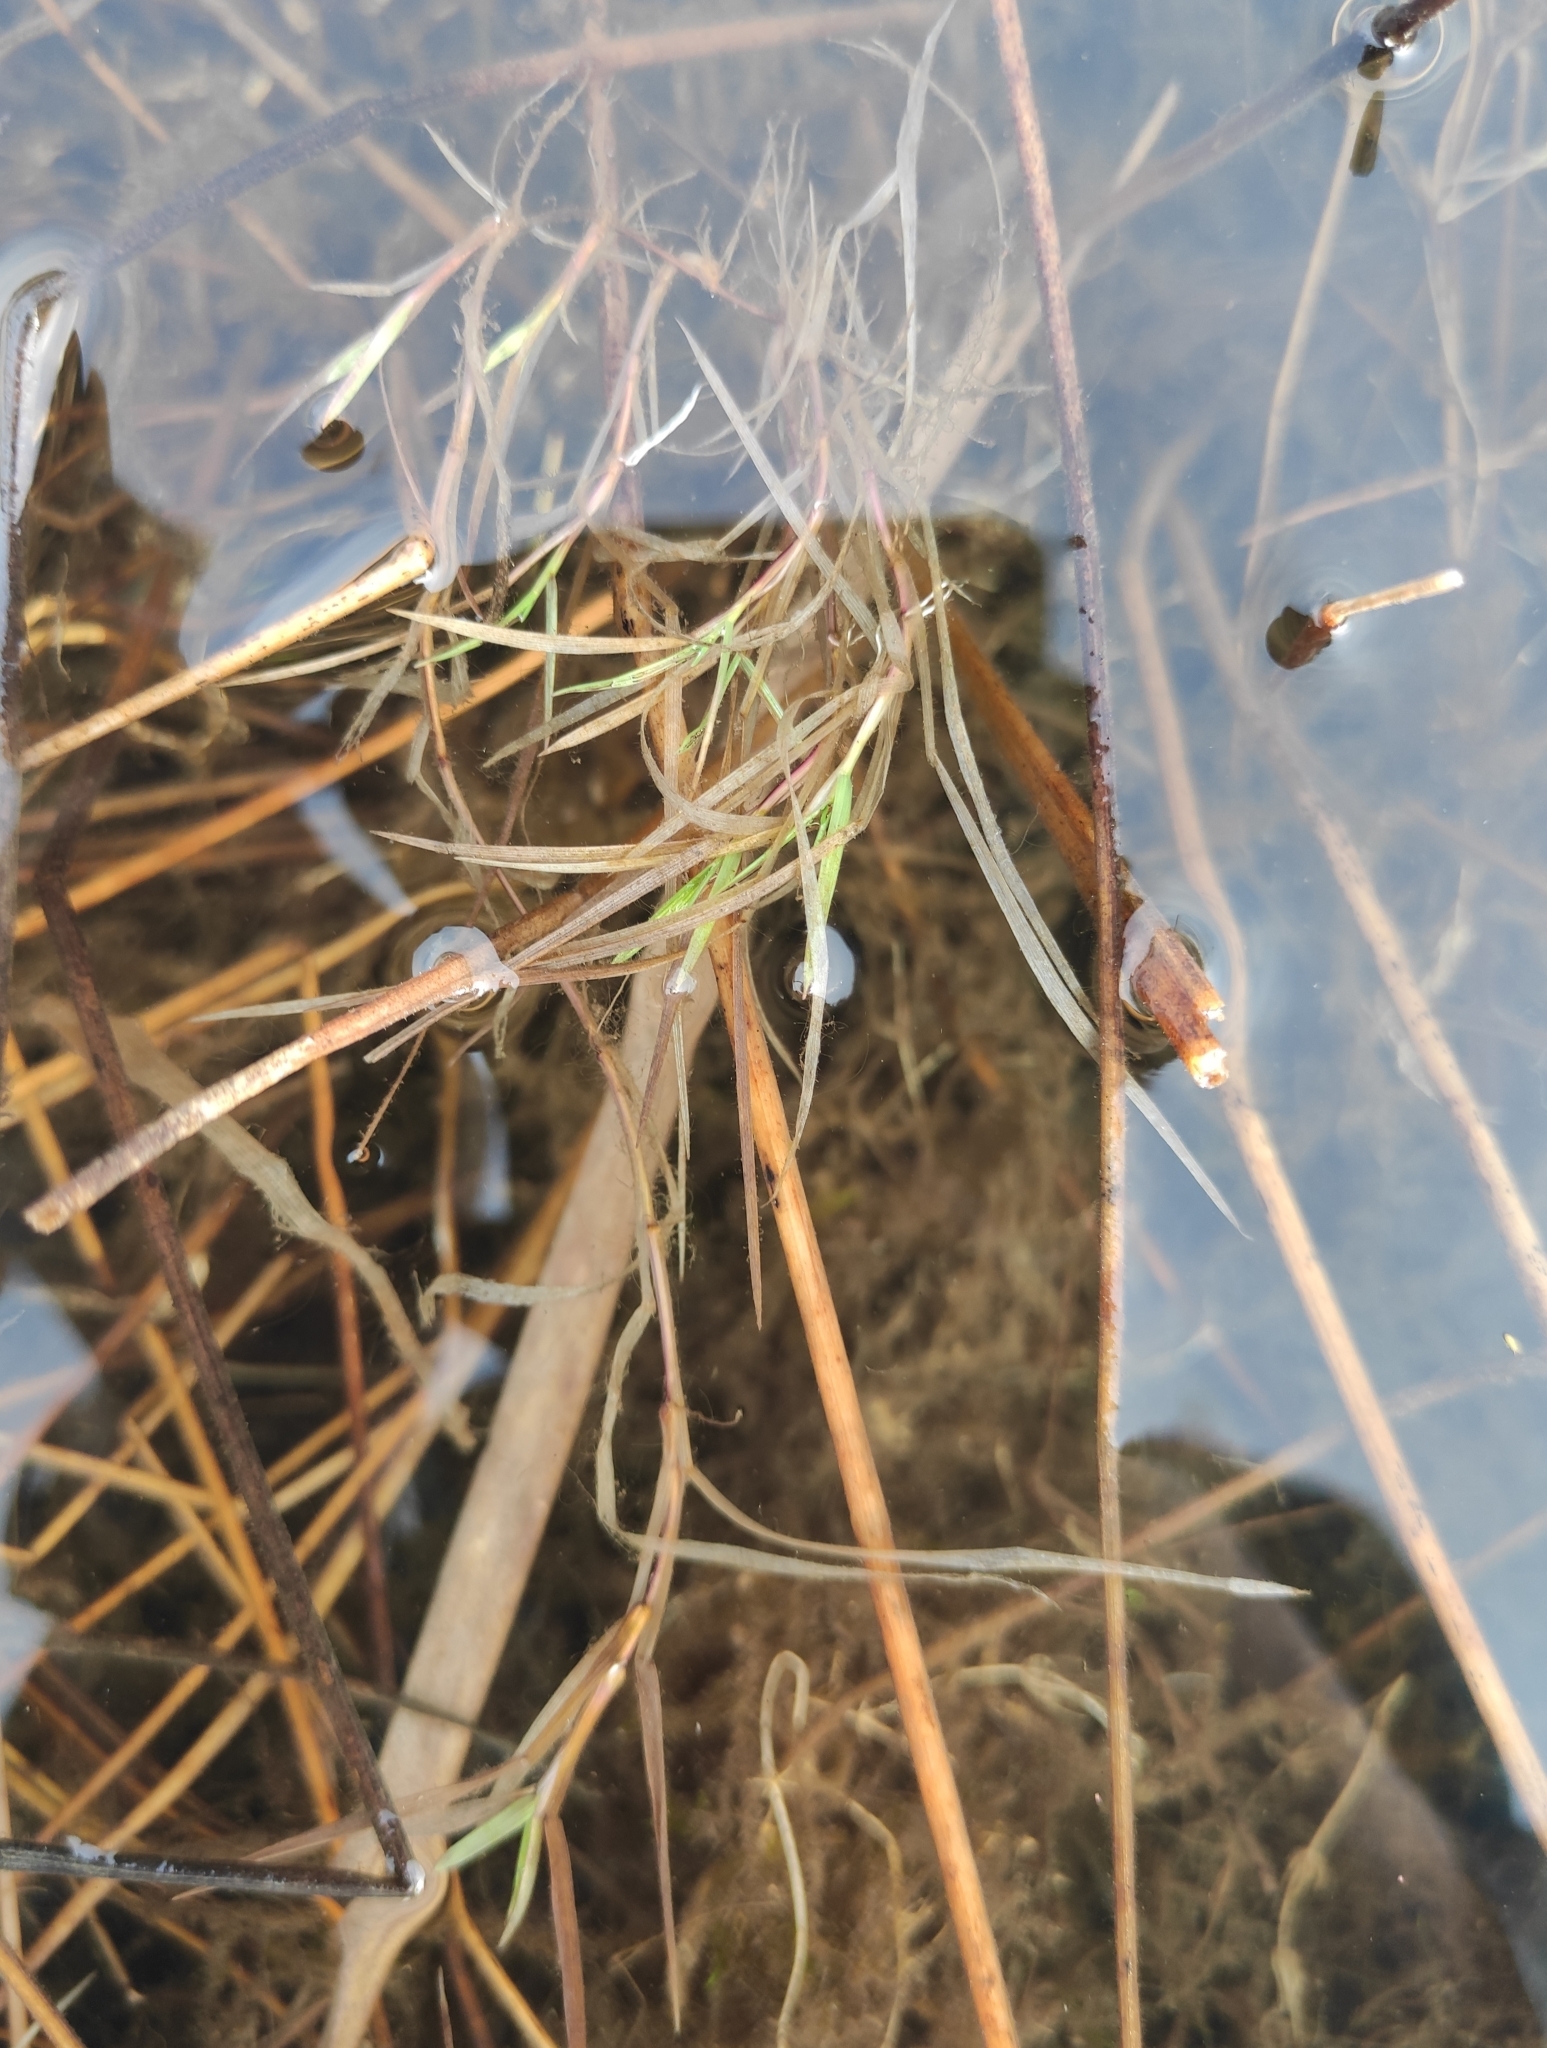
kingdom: Plantae
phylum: Tracheophyta
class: Liliopsida
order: Poales
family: Poaceae
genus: Agrostis
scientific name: Agrostis stolonifera
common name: Creeping bentgrass
